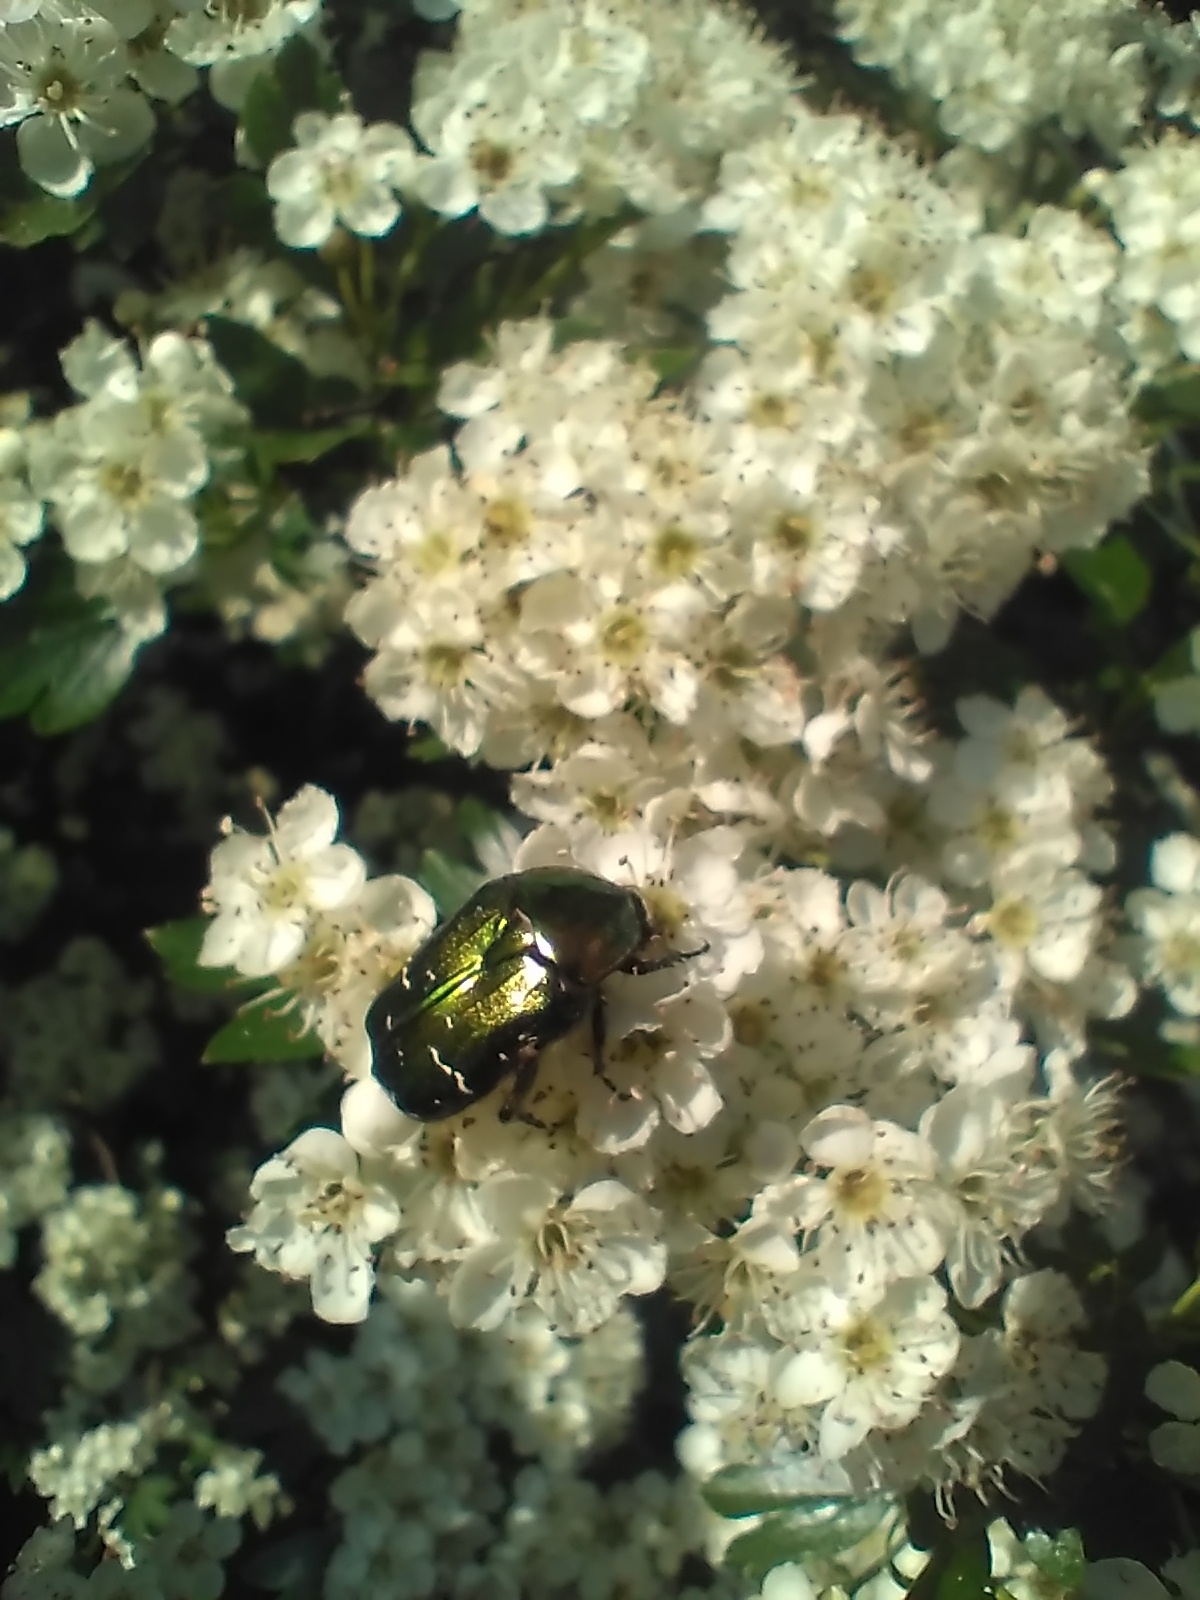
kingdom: Animalia
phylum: Arthropoda
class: Insecta
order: Coleoptera
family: Scarabaeidae
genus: Cetonia
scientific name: Cetonia aurata
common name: Rose chafer
